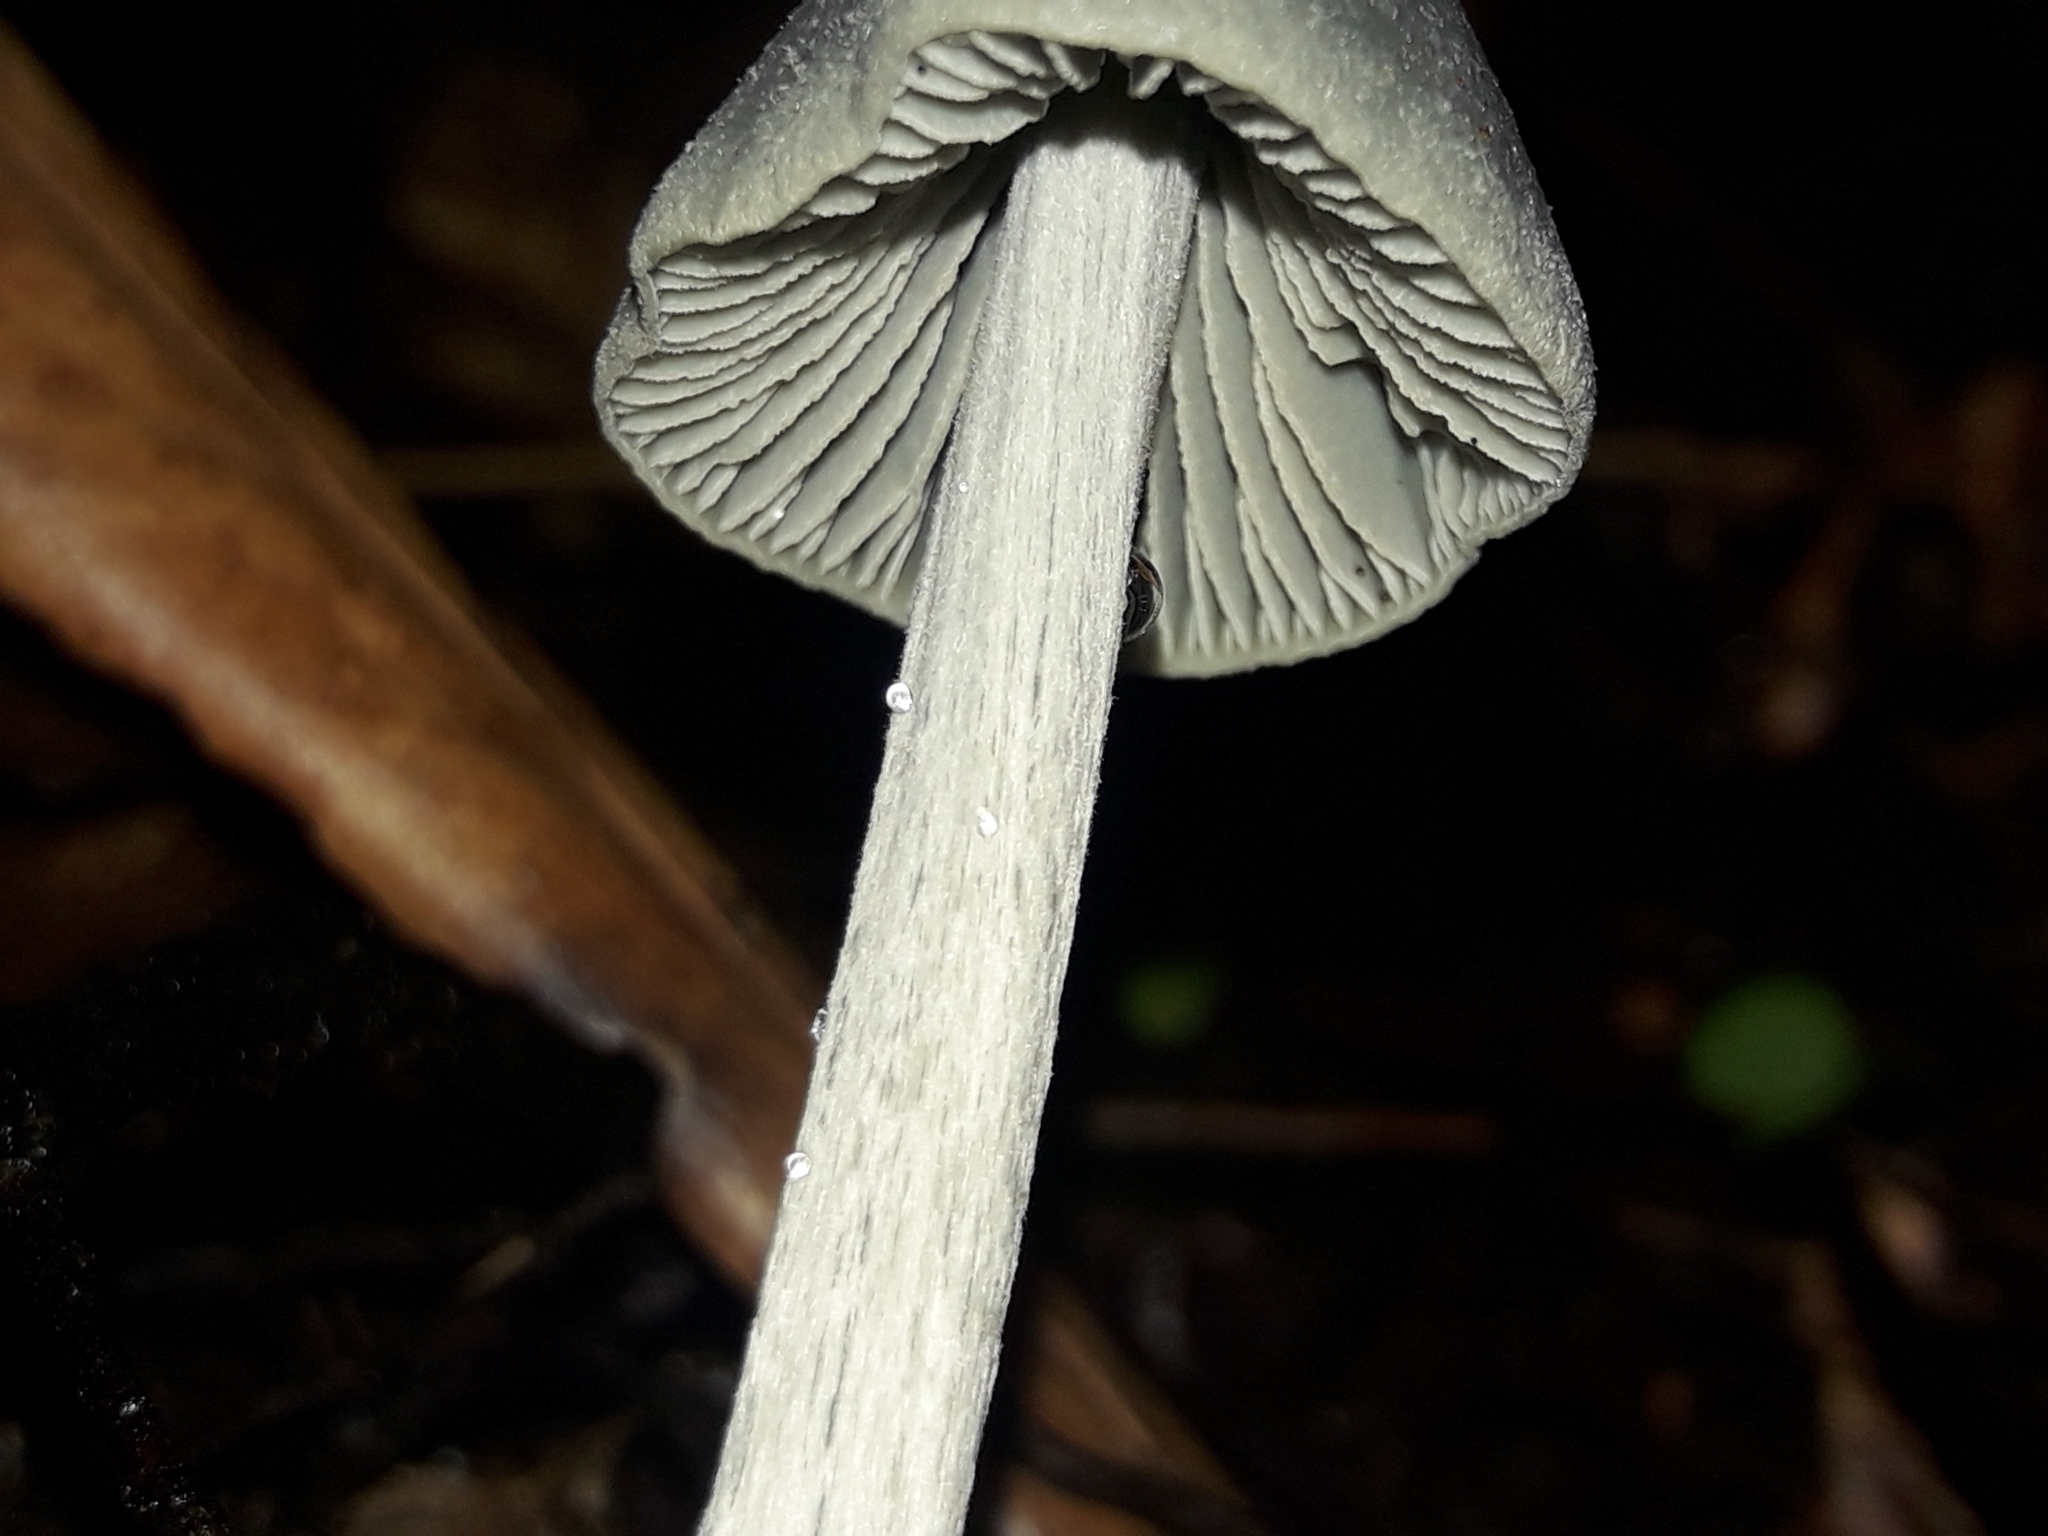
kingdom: Fungi
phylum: Basidiomycota
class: Agaricomycetes
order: Agaricales
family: Entolomataceae
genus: Entoloma
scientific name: Entoloma canoconicum
